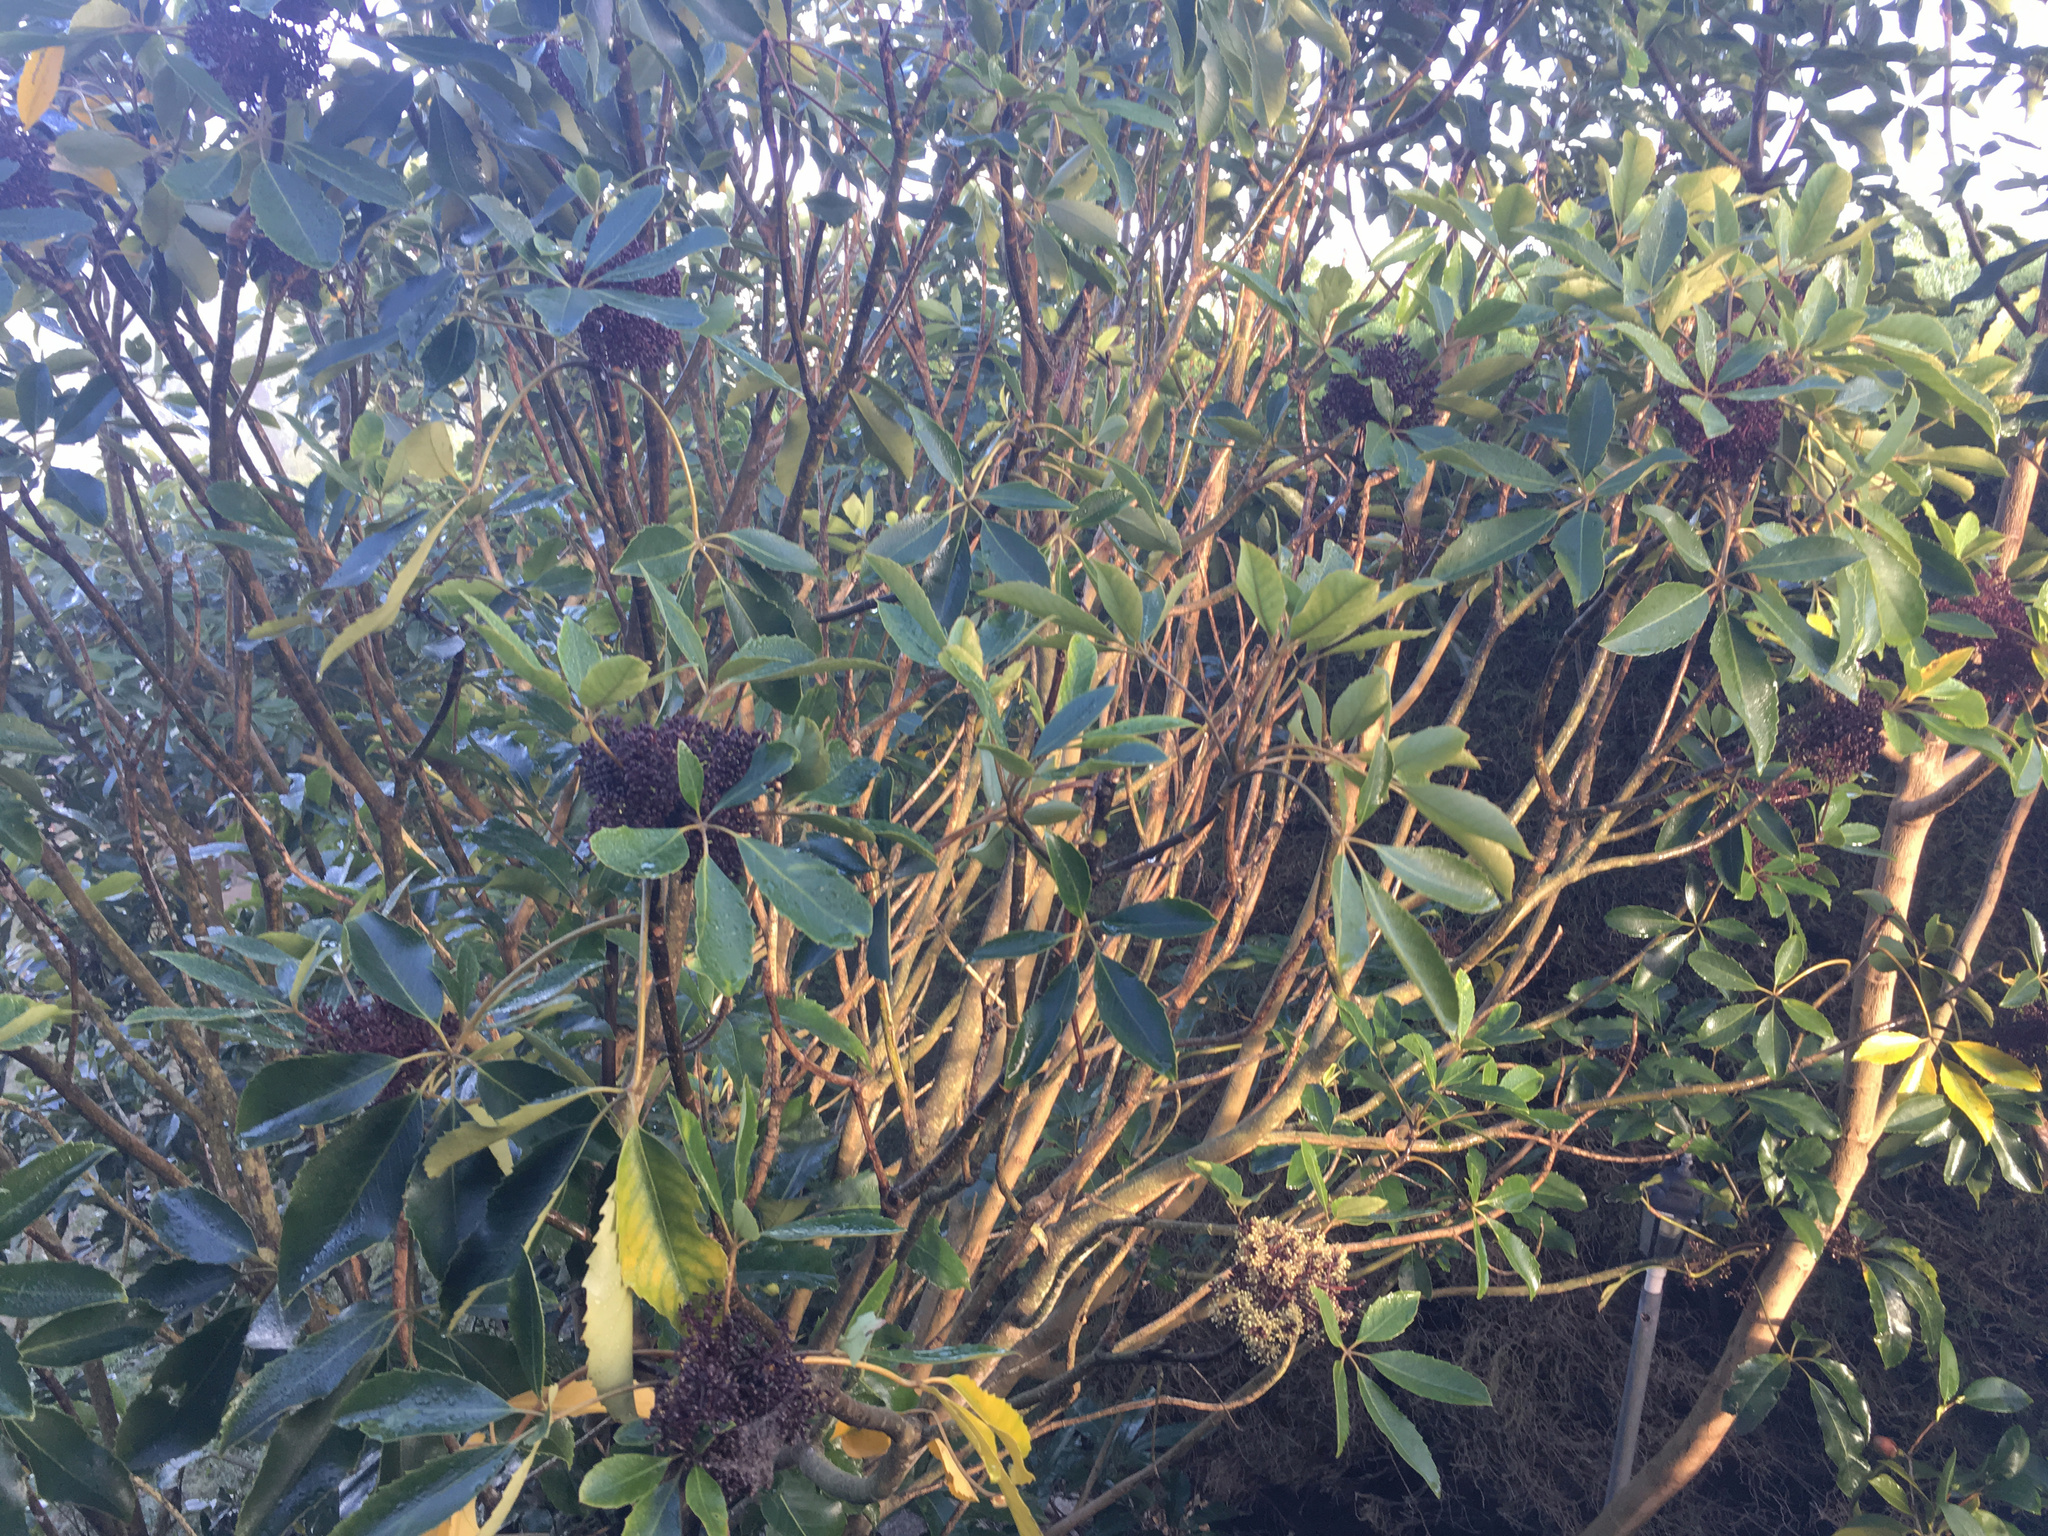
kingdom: Plantae
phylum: Tracheophyta
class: Magnoliopsida
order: Apiales
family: Araliaceae
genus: Neopanax
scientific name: Neopanax arboreus
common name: Five-fingers
